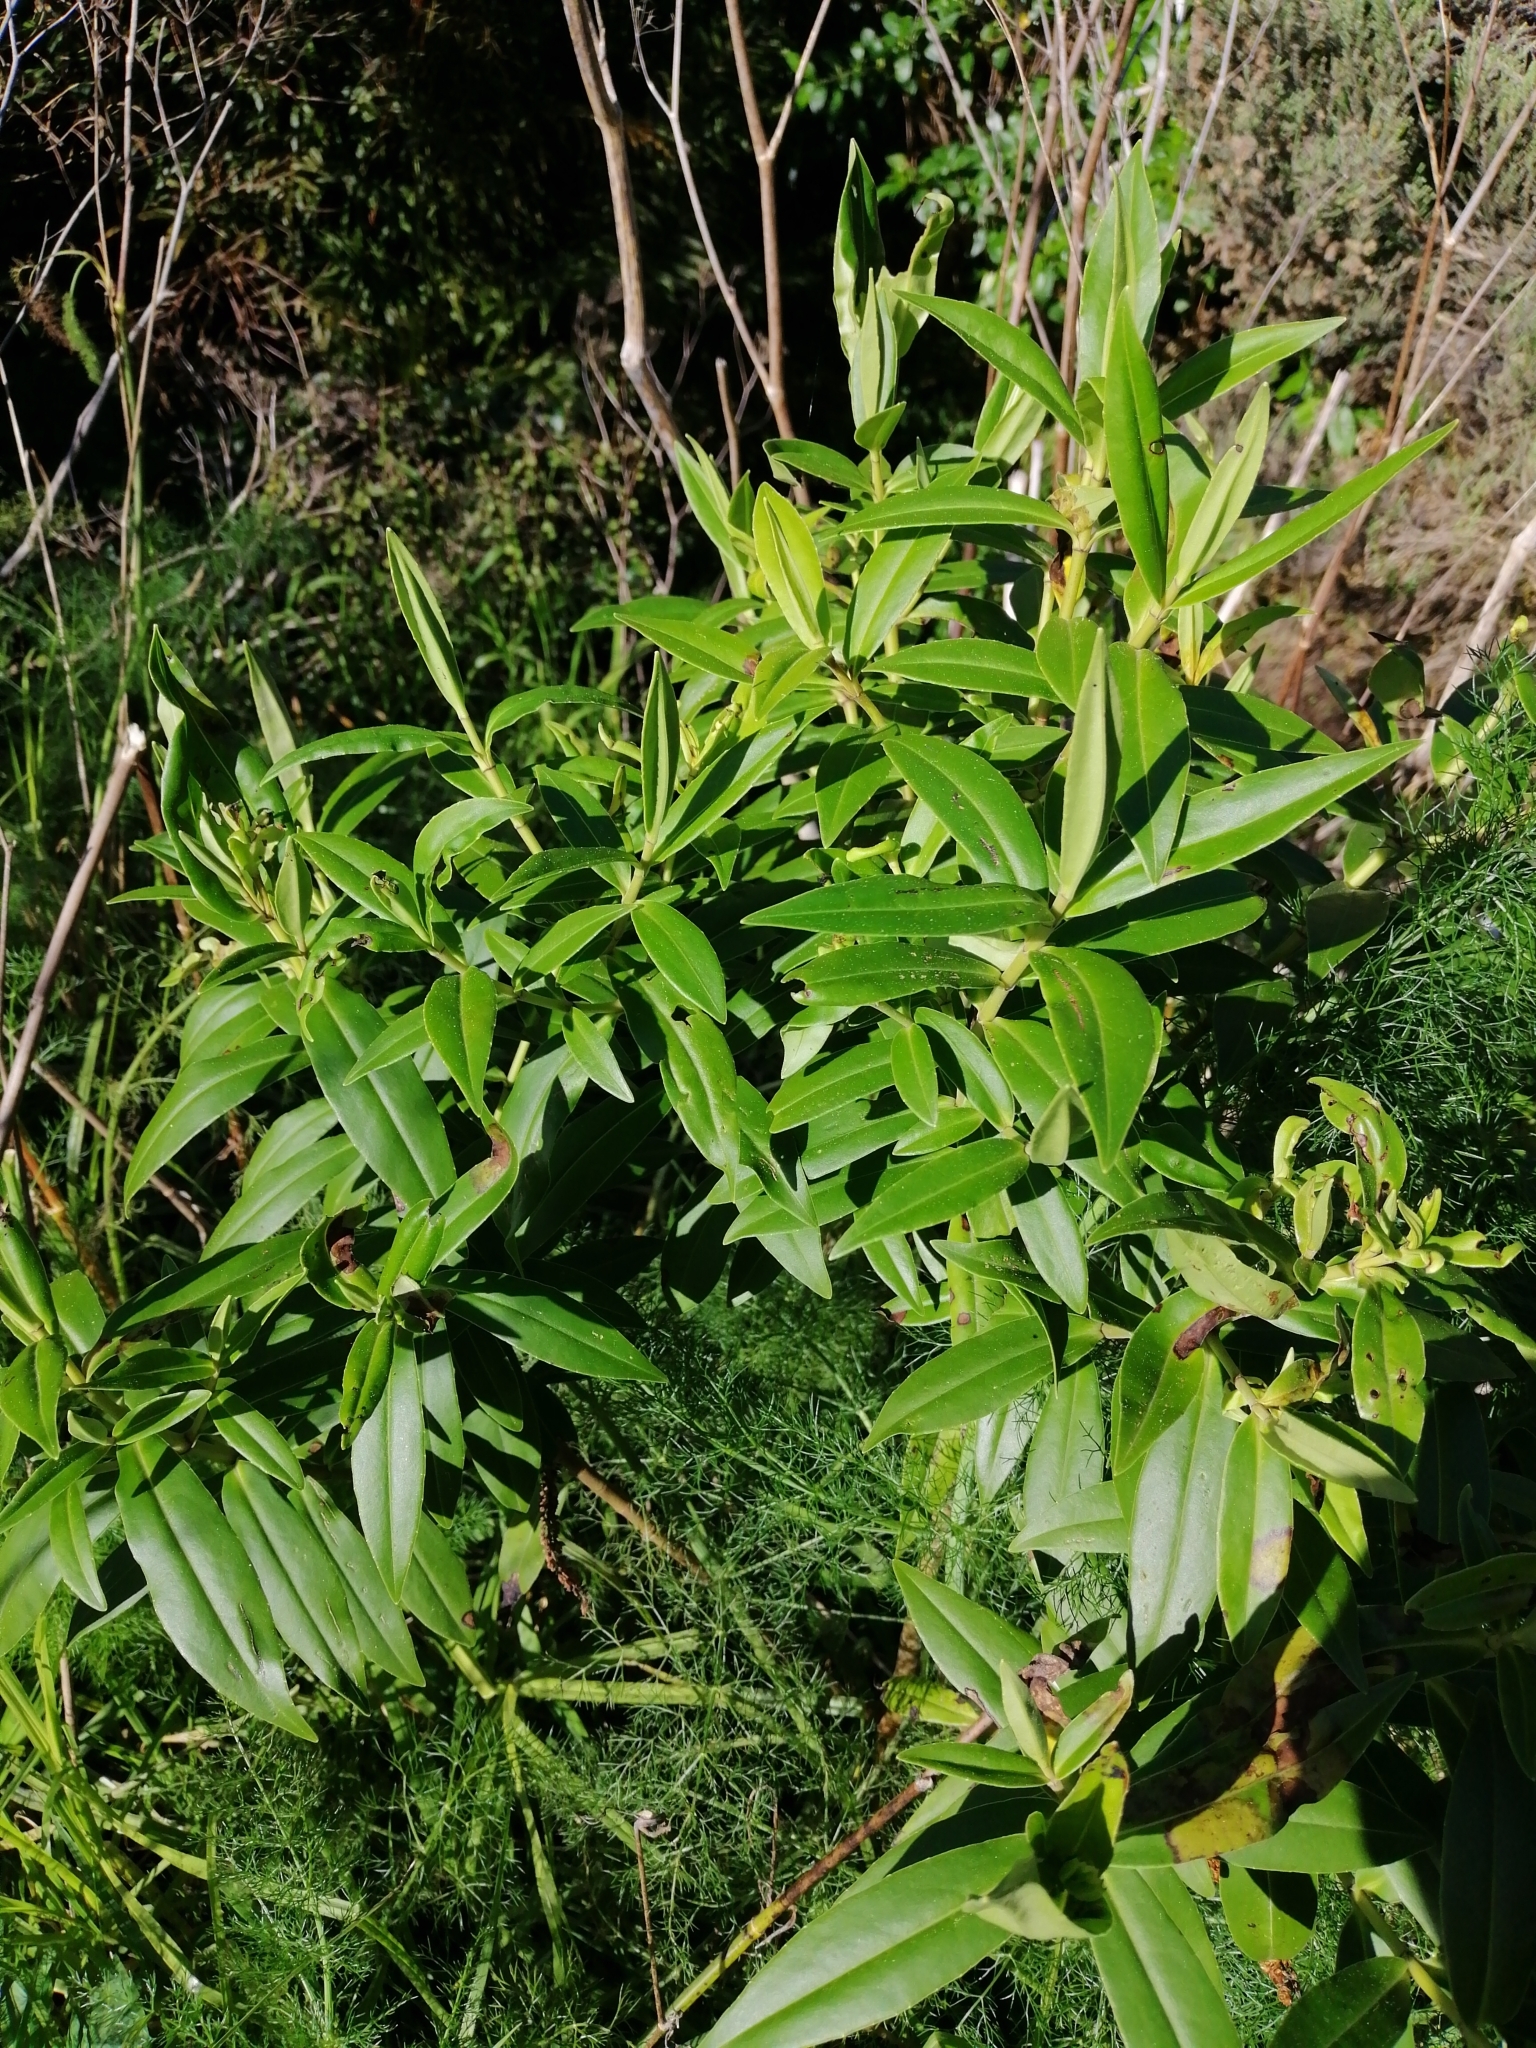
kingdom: Plantae
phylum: Tracheophyta
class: Magnoliopsida
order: Lamiales
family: Plantaginaceae
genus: Veronica
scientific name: Veronica stricta
